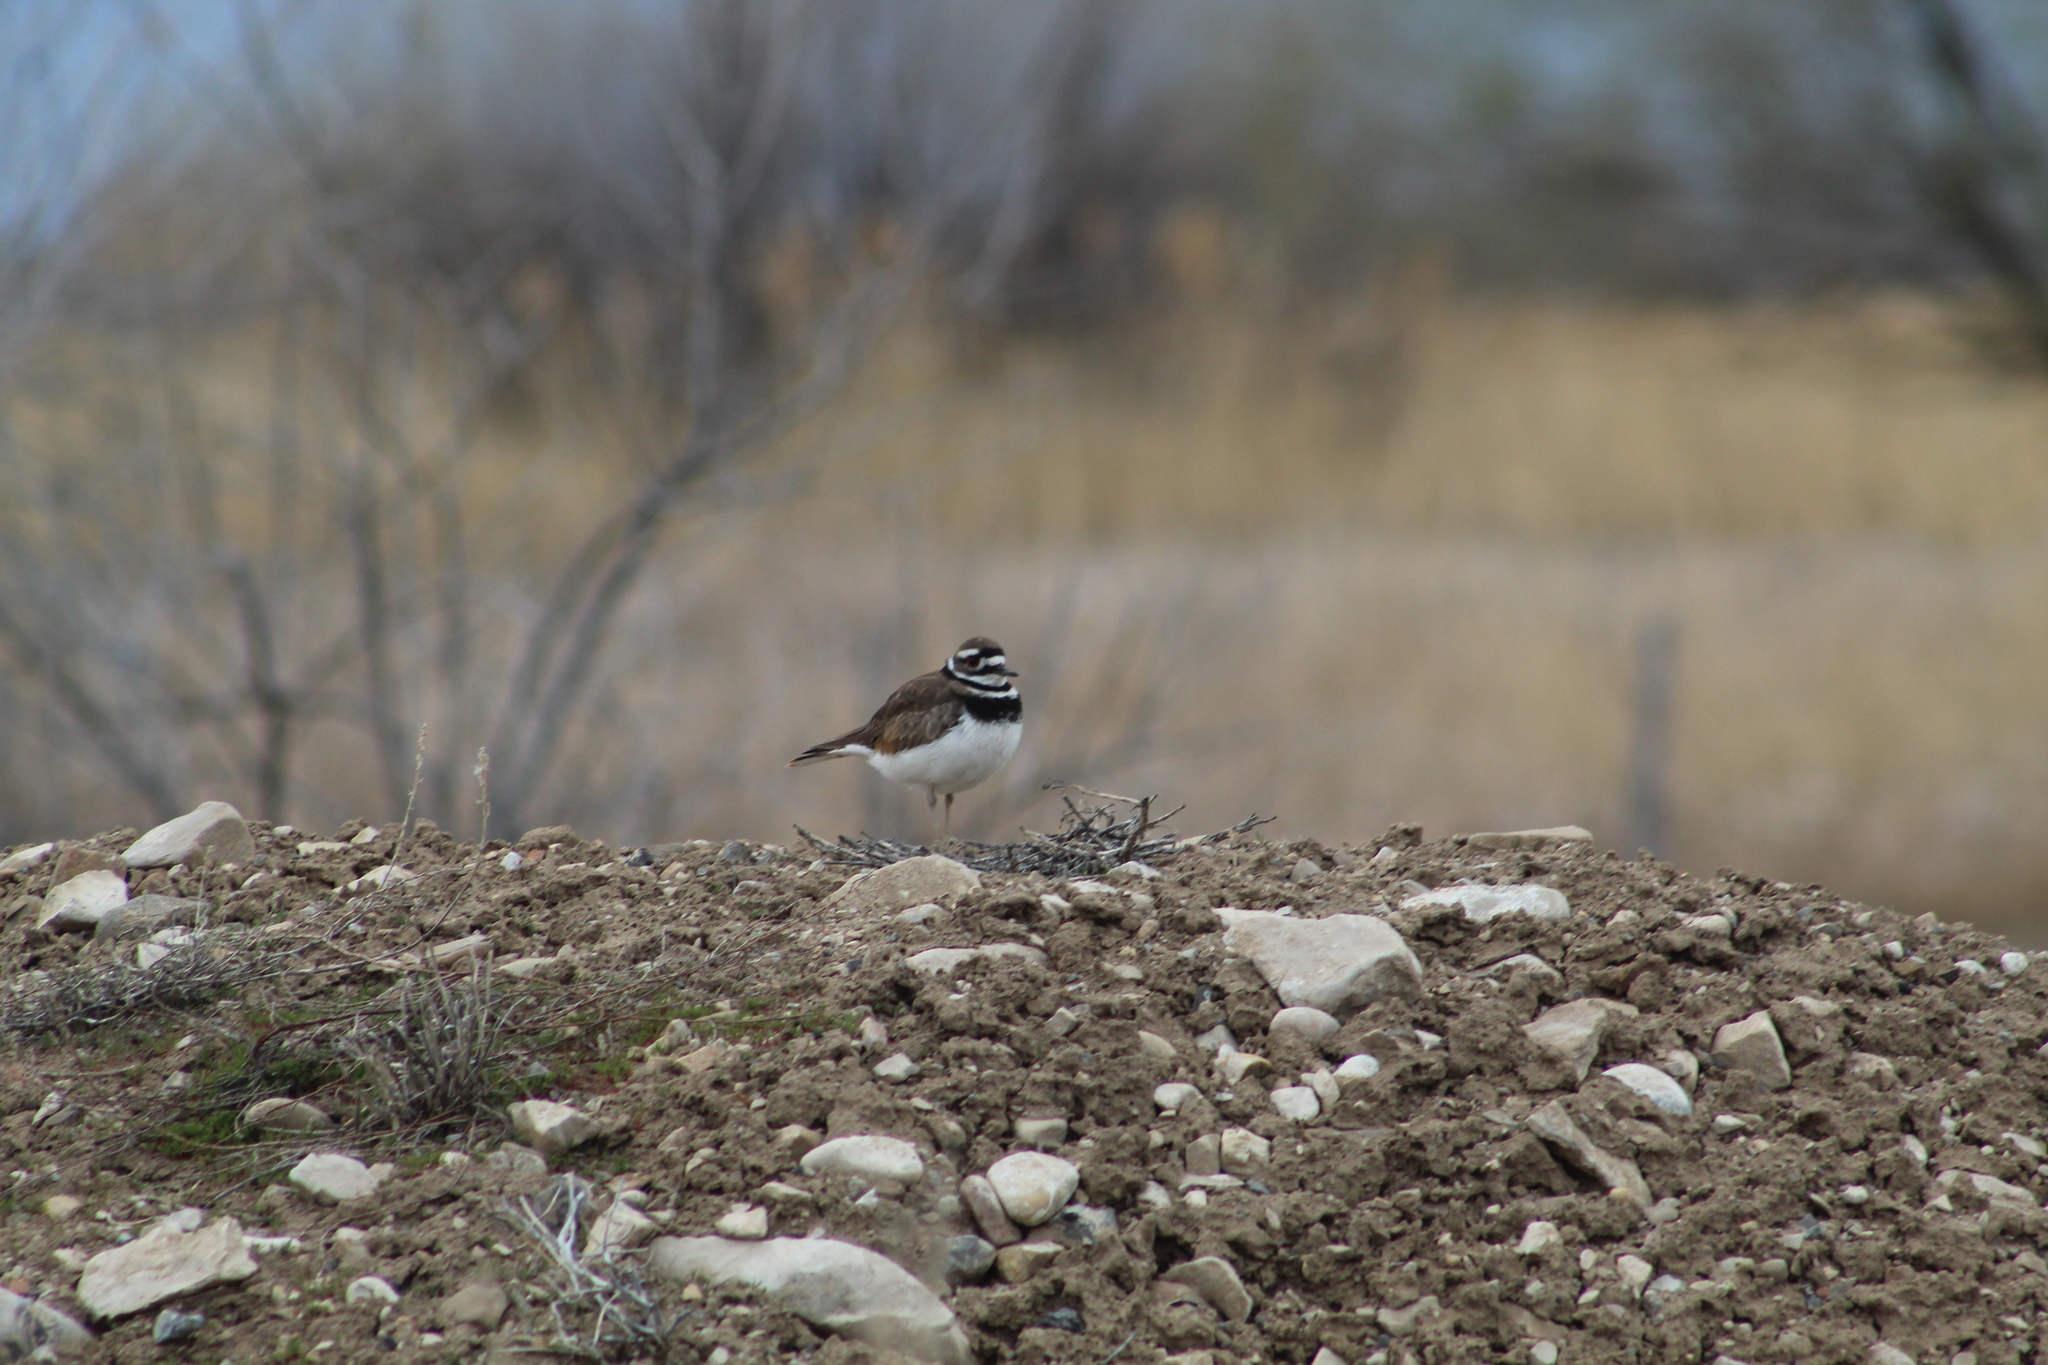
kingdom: Animalia
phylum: Chordata
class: Aves
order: Charadriiformes
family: Charadriidae
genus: Charadrius
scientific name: Charadrius vociferus
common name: Killdeer
